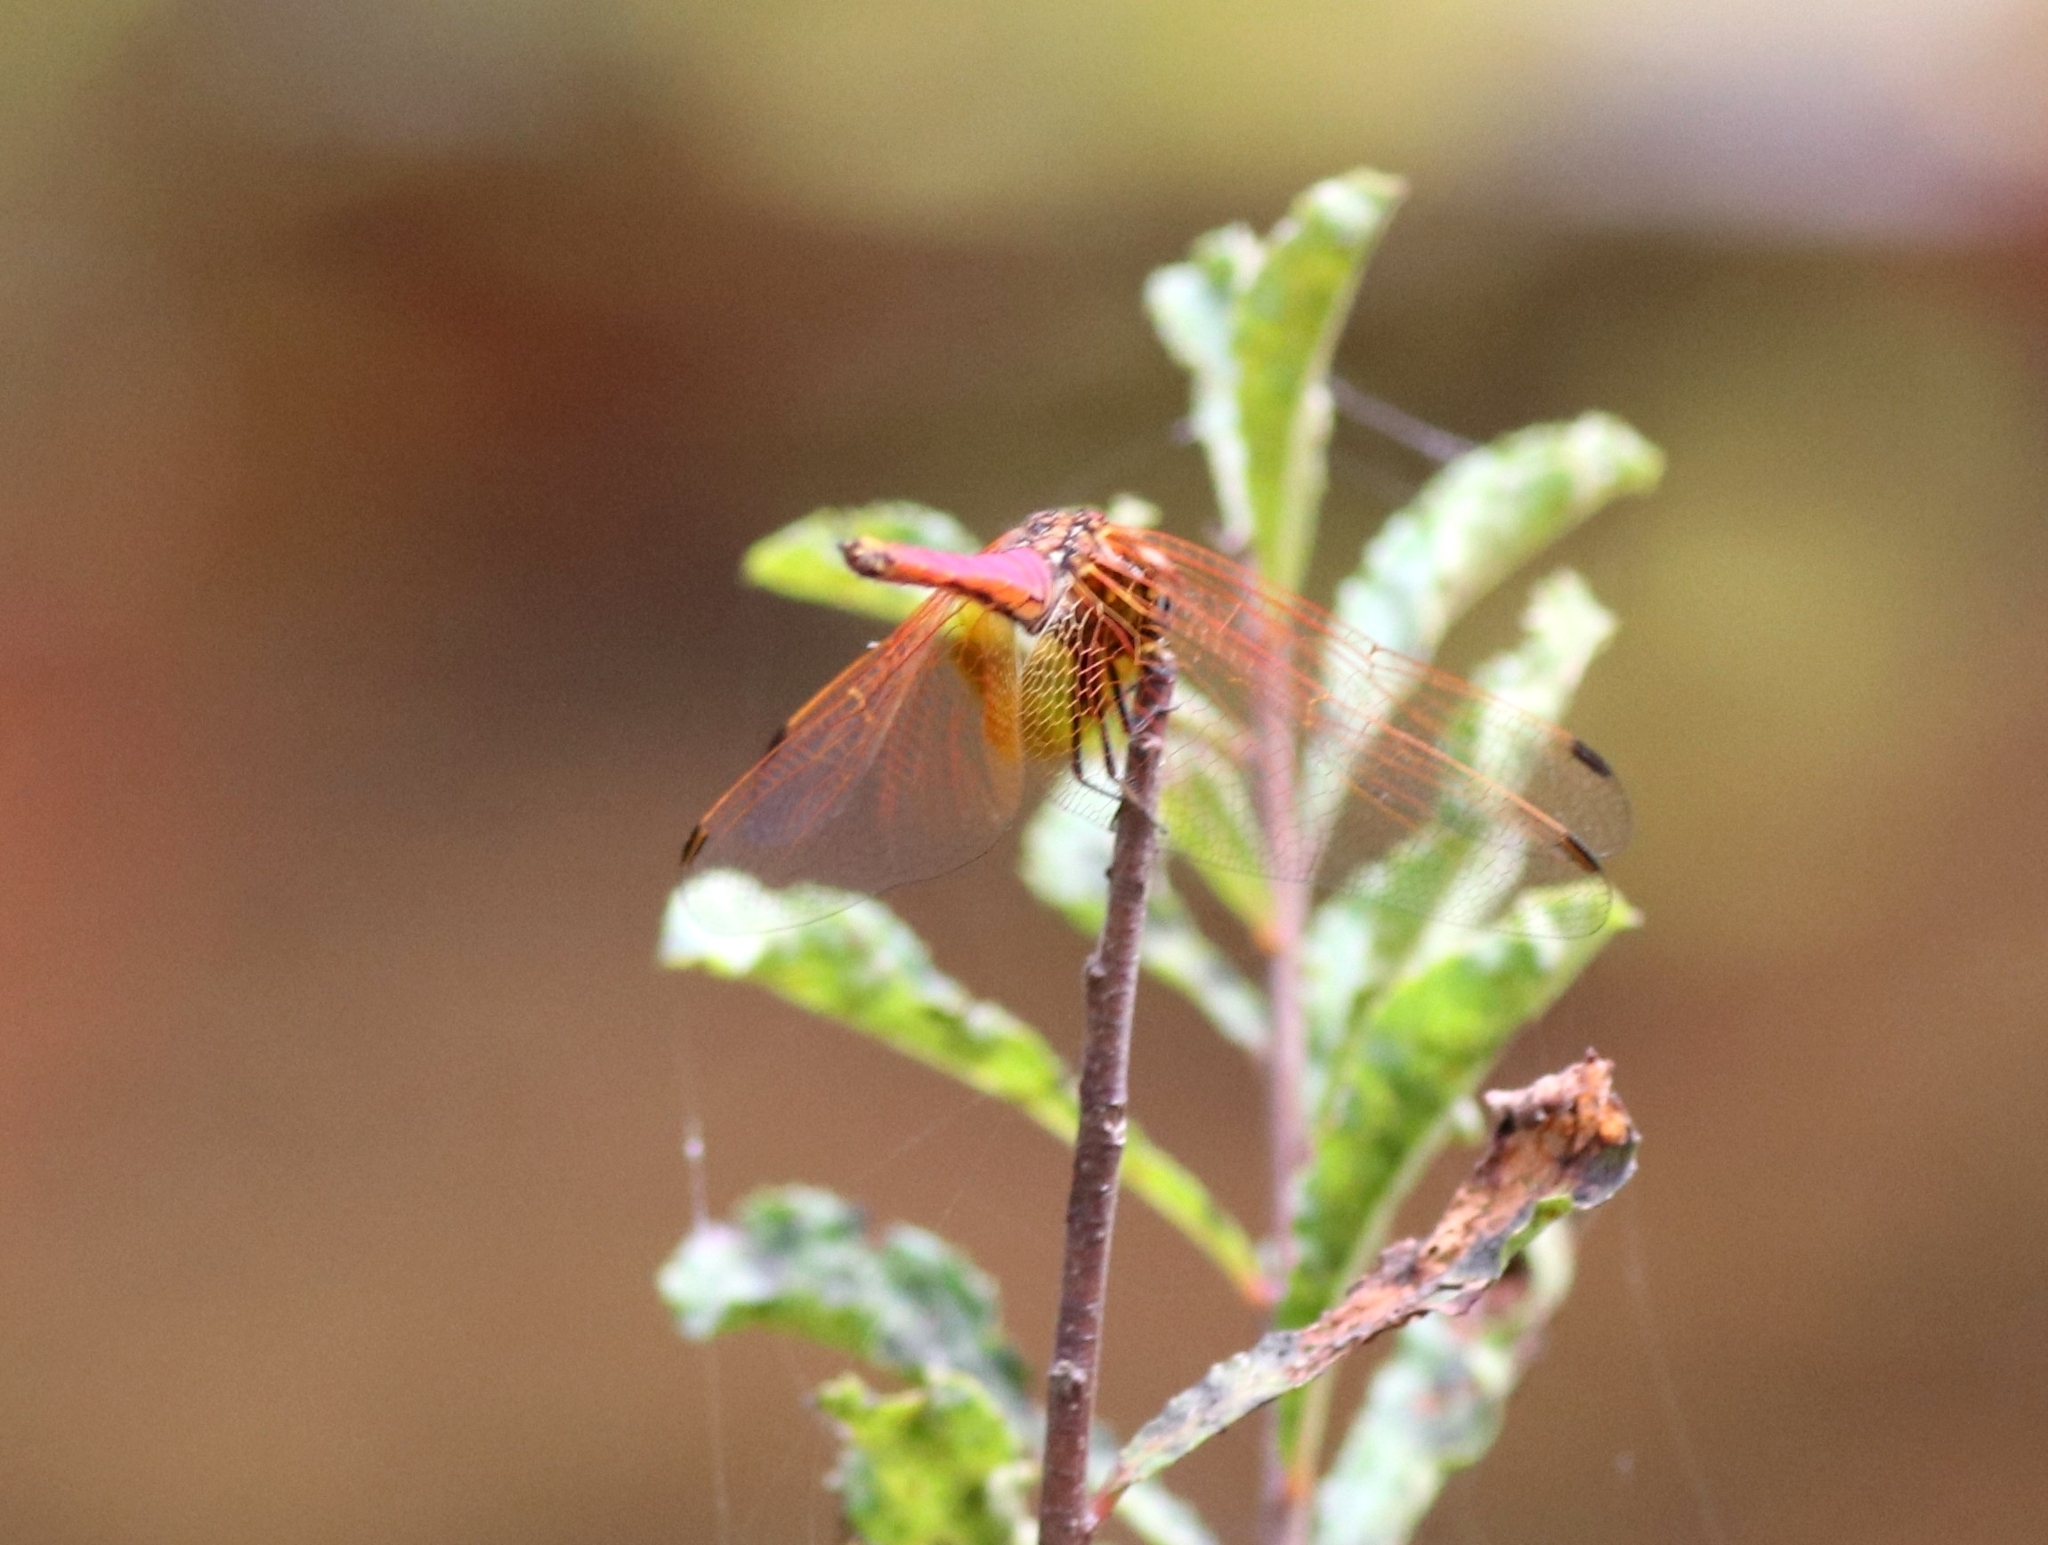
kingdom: Animalia
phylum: Arthropoda
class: Insecta
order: Odonata
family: Libellulidae
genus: Trithemis
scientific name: Trithemis aurora
